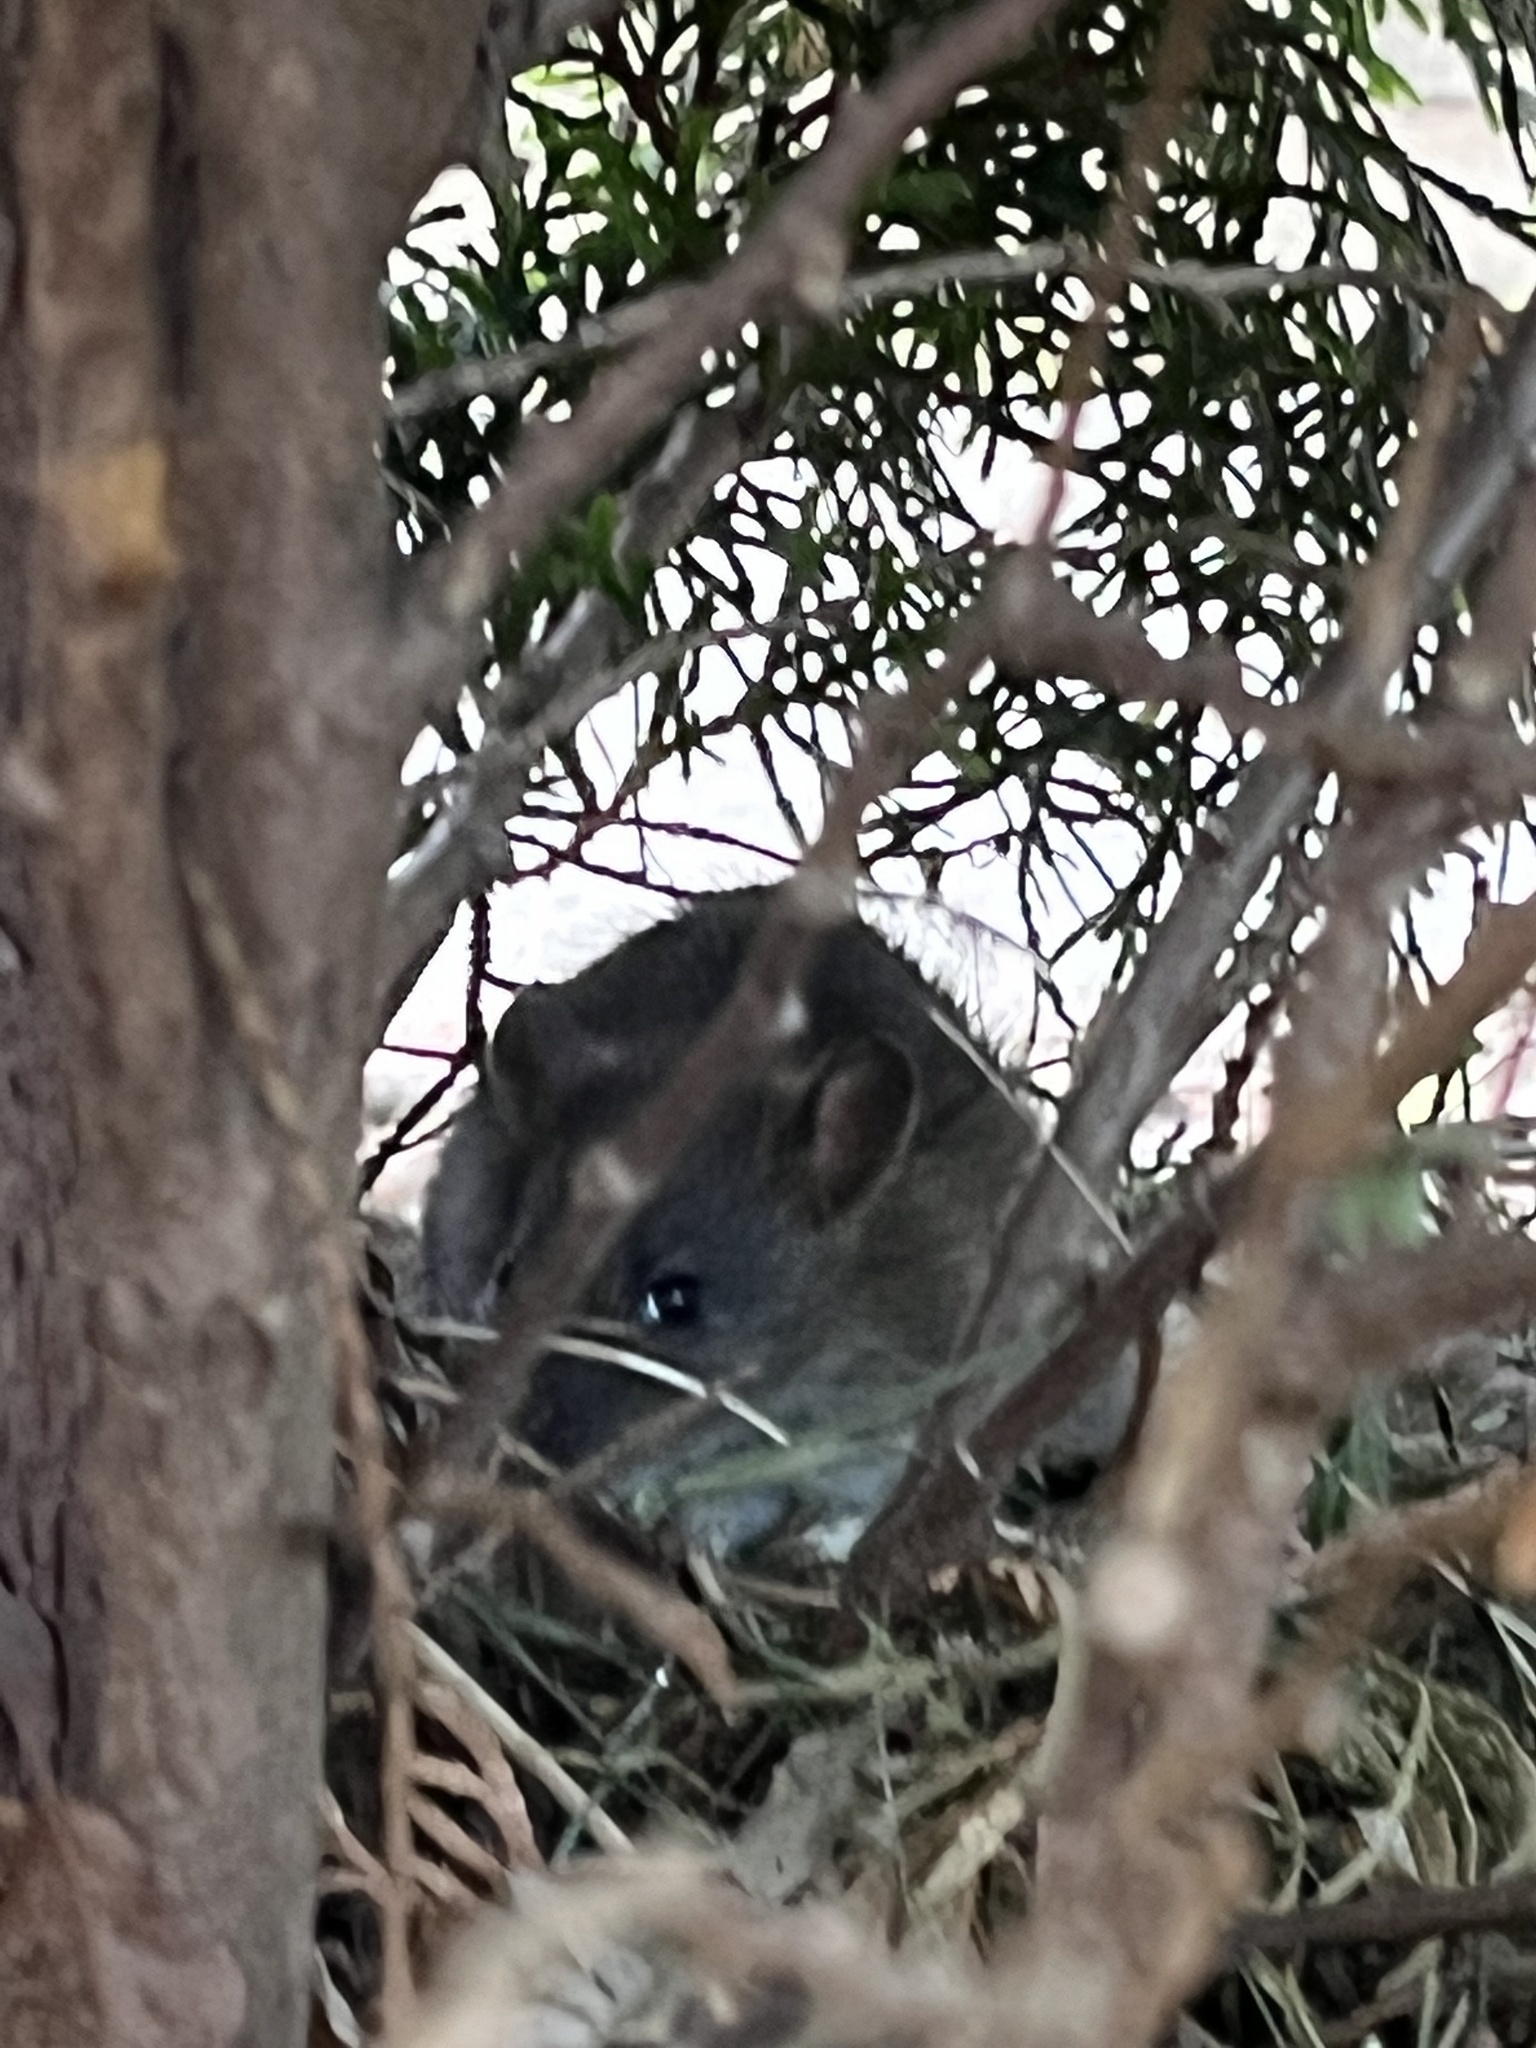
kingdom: Animalia
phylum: Chordata
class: Mammalia
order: Rodentia
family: Muridae
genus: Rattus
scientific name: Rattus norvegicus
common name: Brown rat
